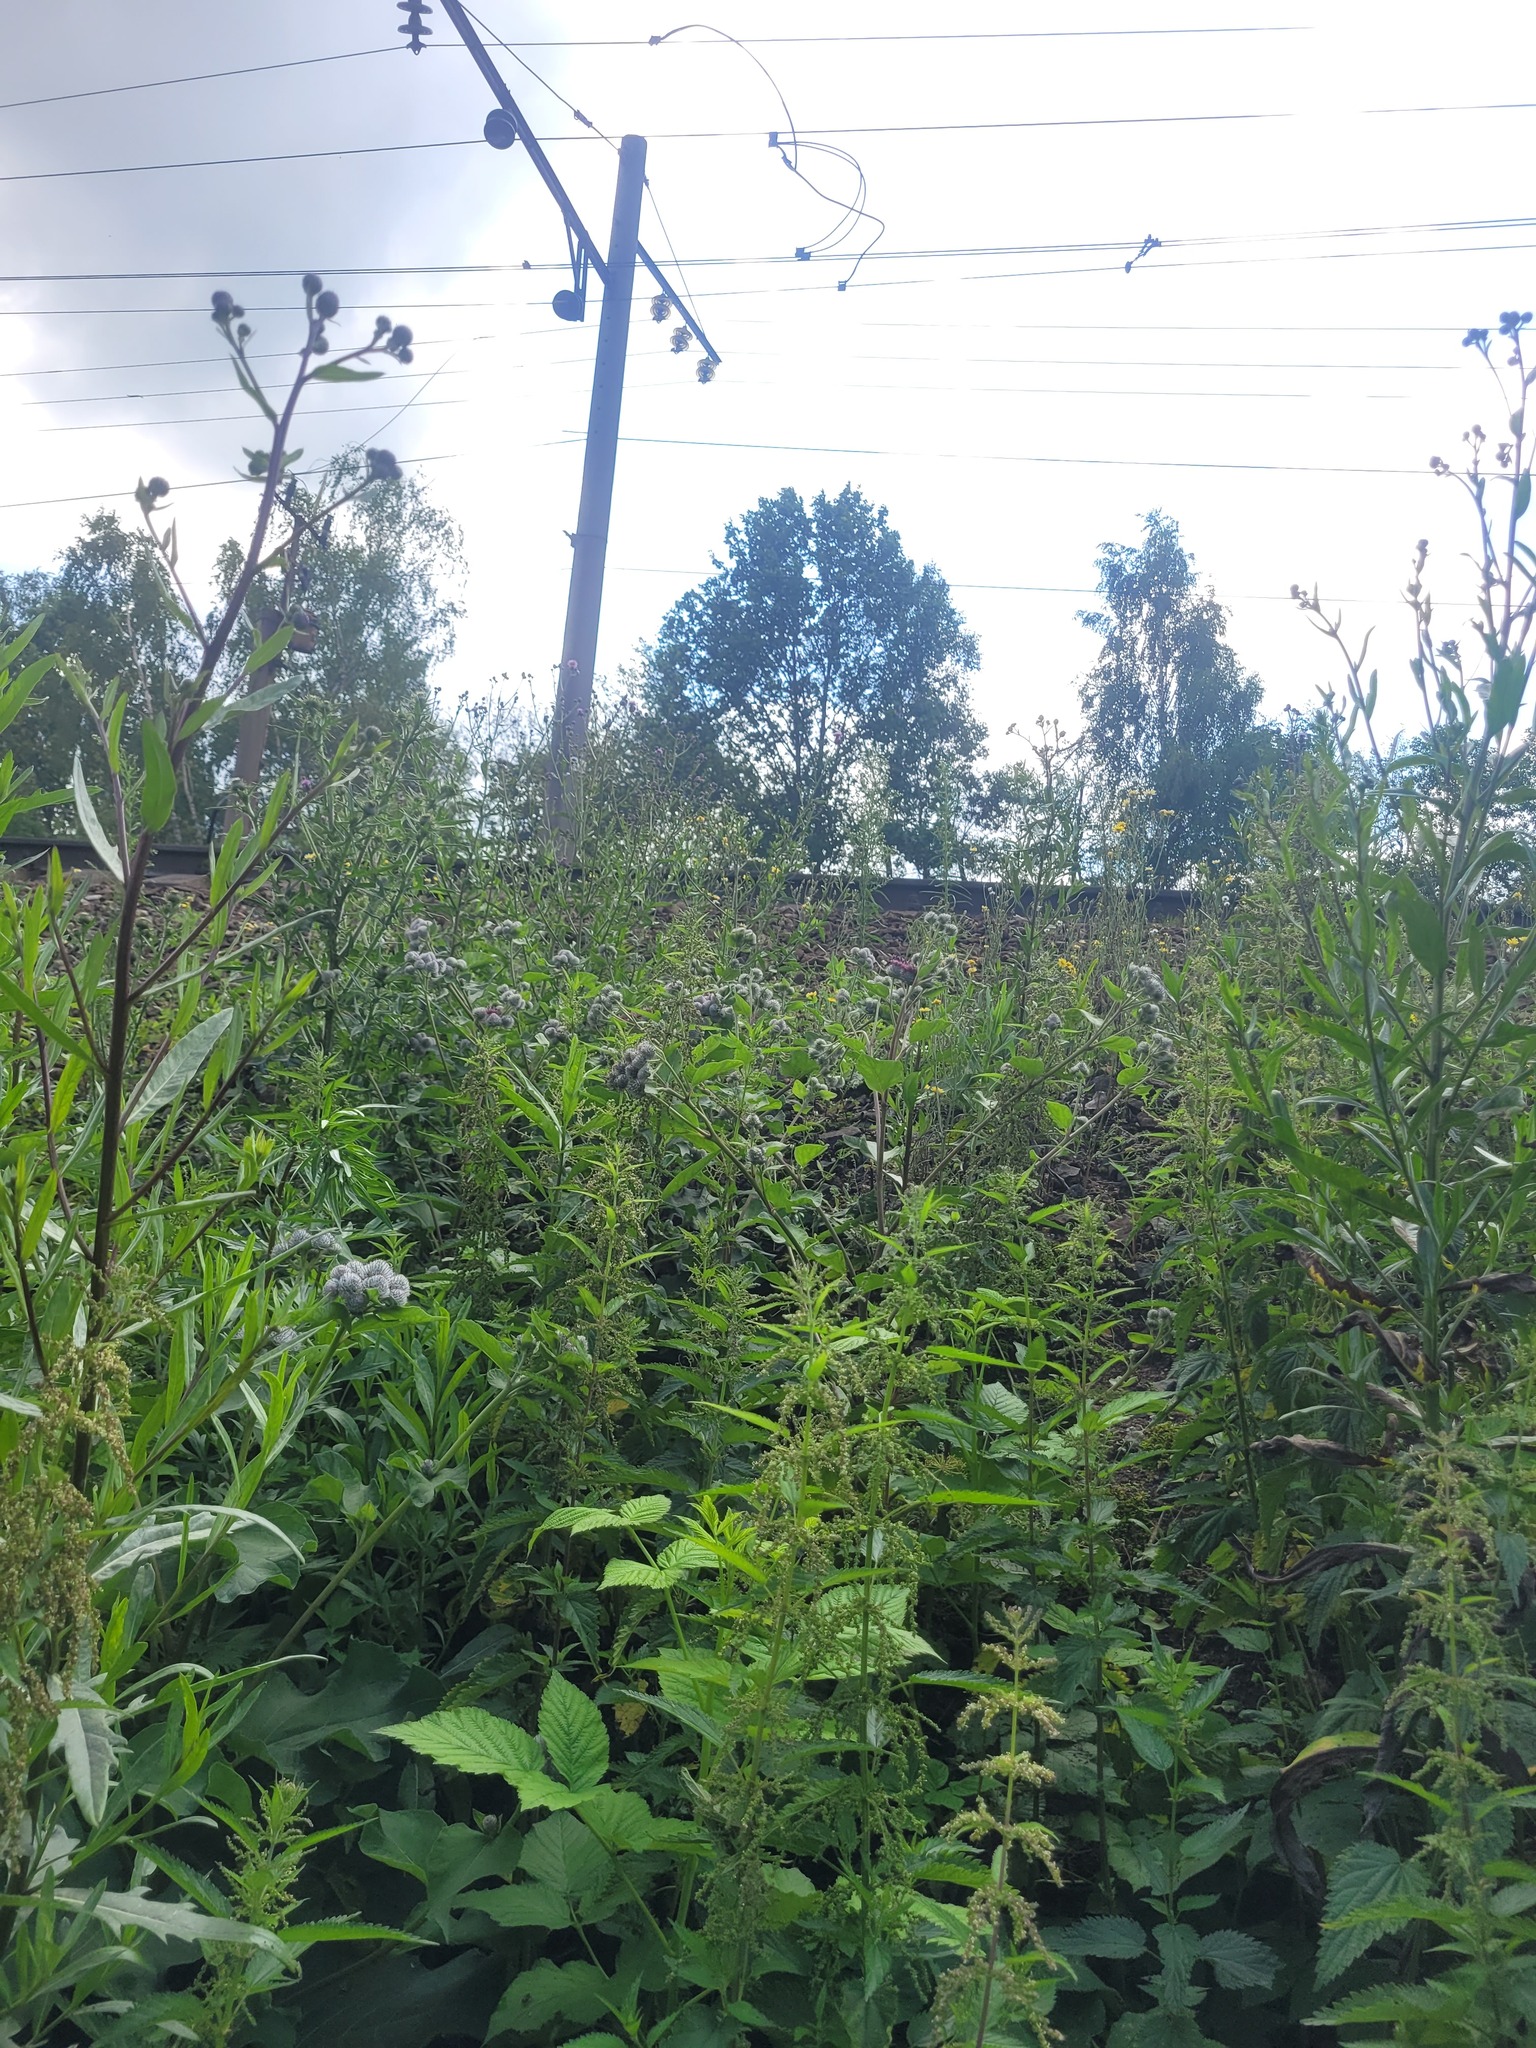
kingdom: Plantae
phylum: Tracheophyta
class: Magnoliopsida
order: Asterales
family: Asteraceae
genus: Arctium
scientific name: Arctium tomentosum
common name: Woolly burdock
